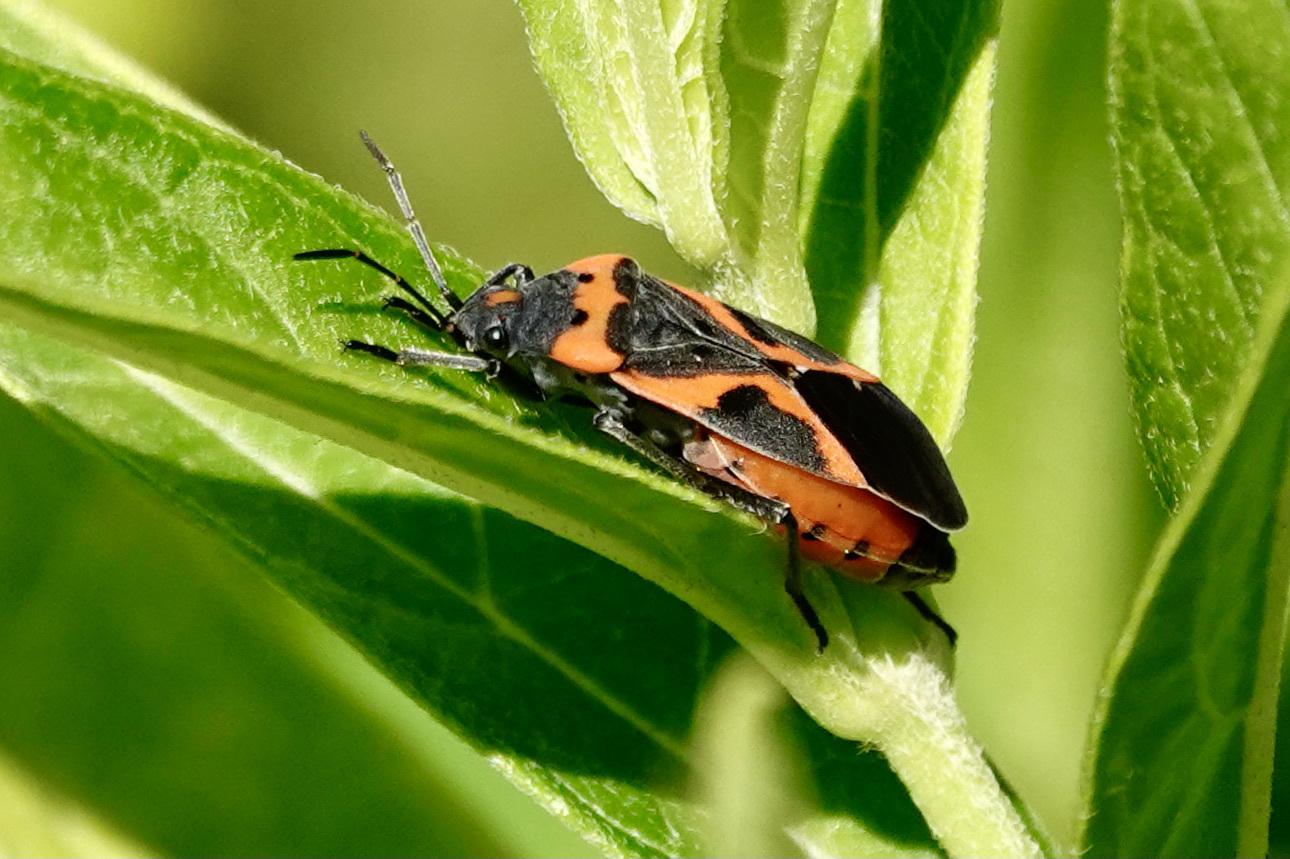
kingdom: Animalia
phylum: Arthropoda
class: Insecta
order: Hemiptera
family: Lygaeidae
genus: Lygaeus
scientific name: Lygaeus kalmii
